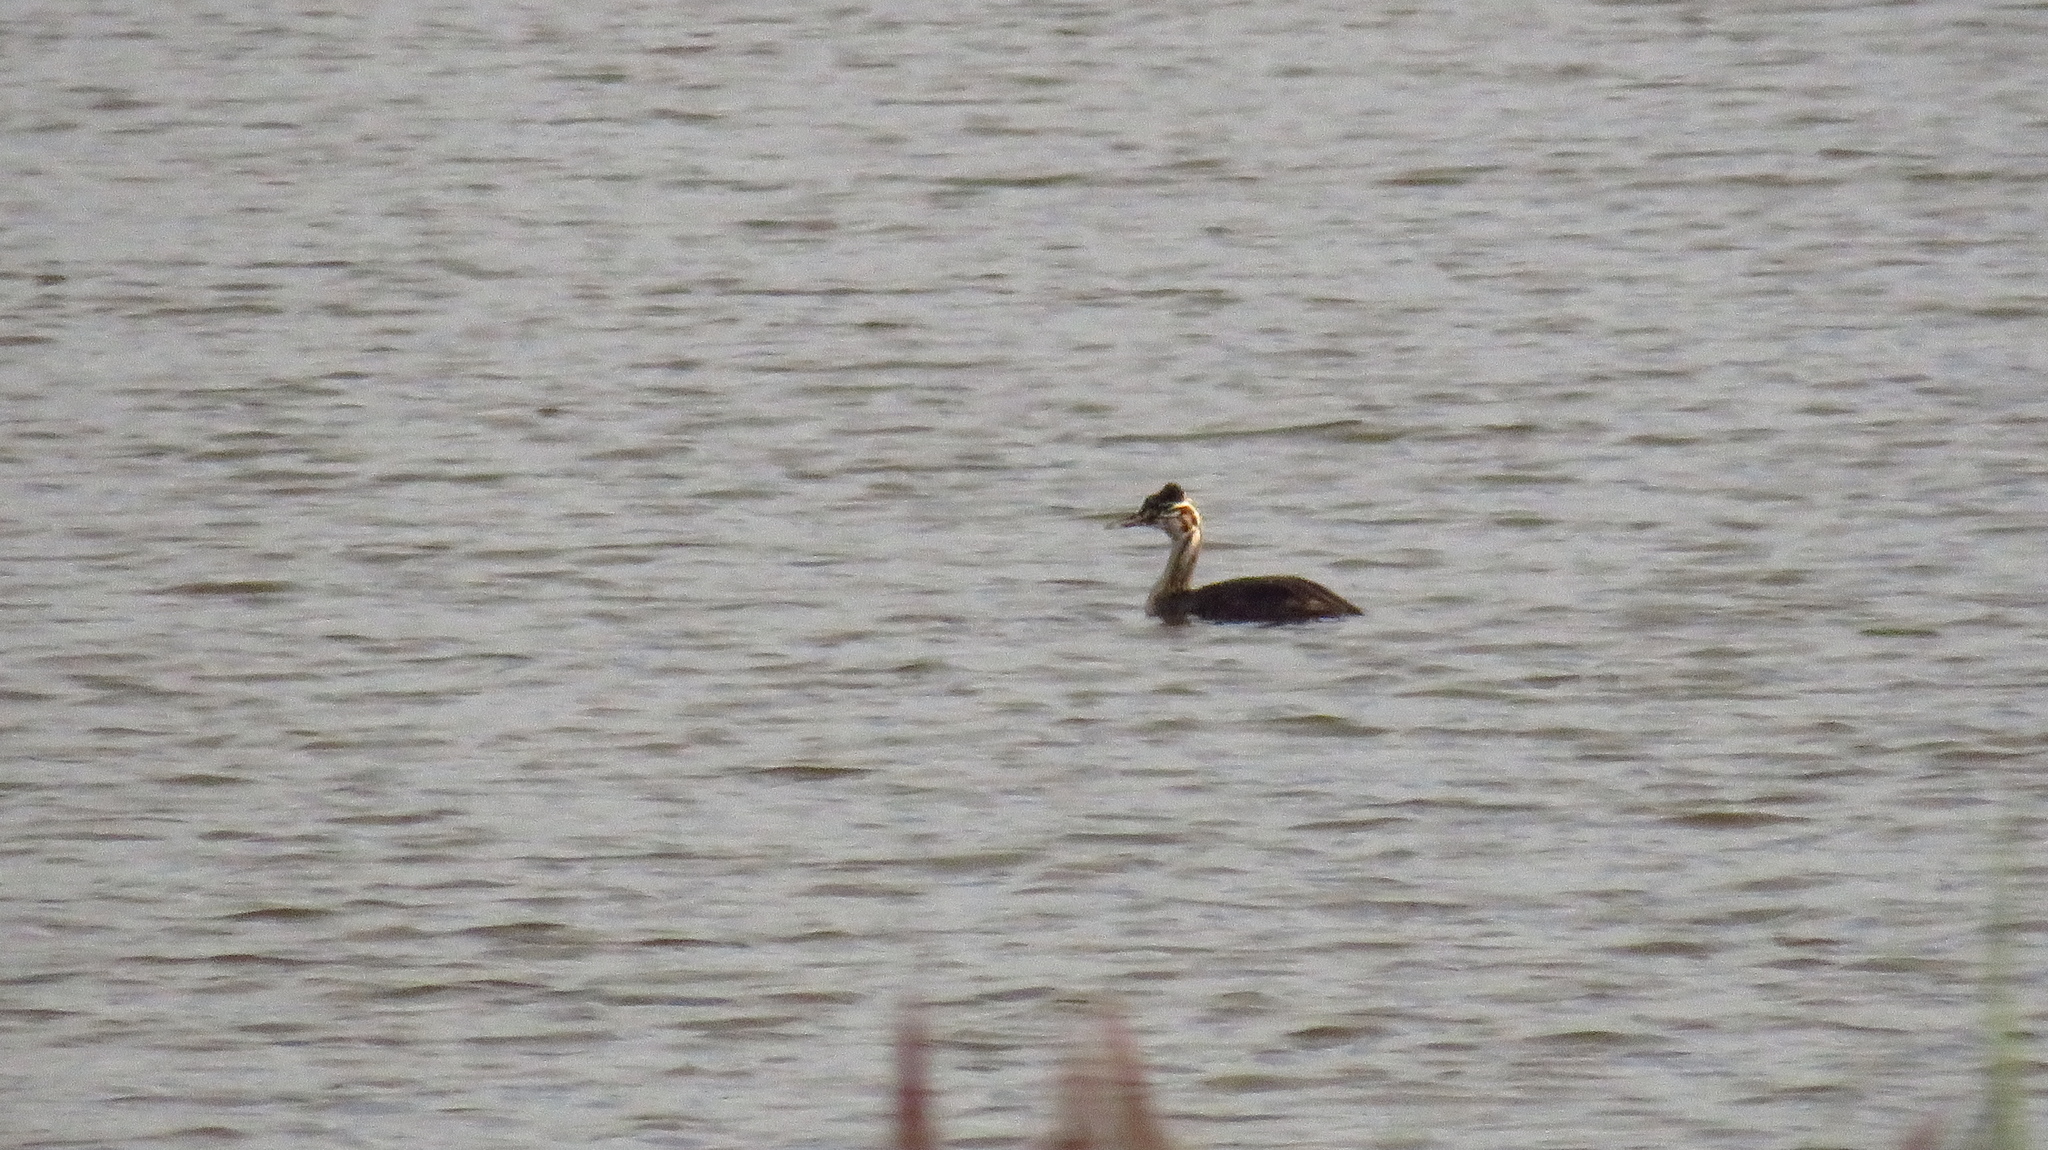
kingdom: Animalia
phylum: Chordata
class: Aves
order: Podicipediformes
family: Podicipedidae
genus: Podiceps
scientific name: Podiceps cristatus
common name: Great crested grebe
